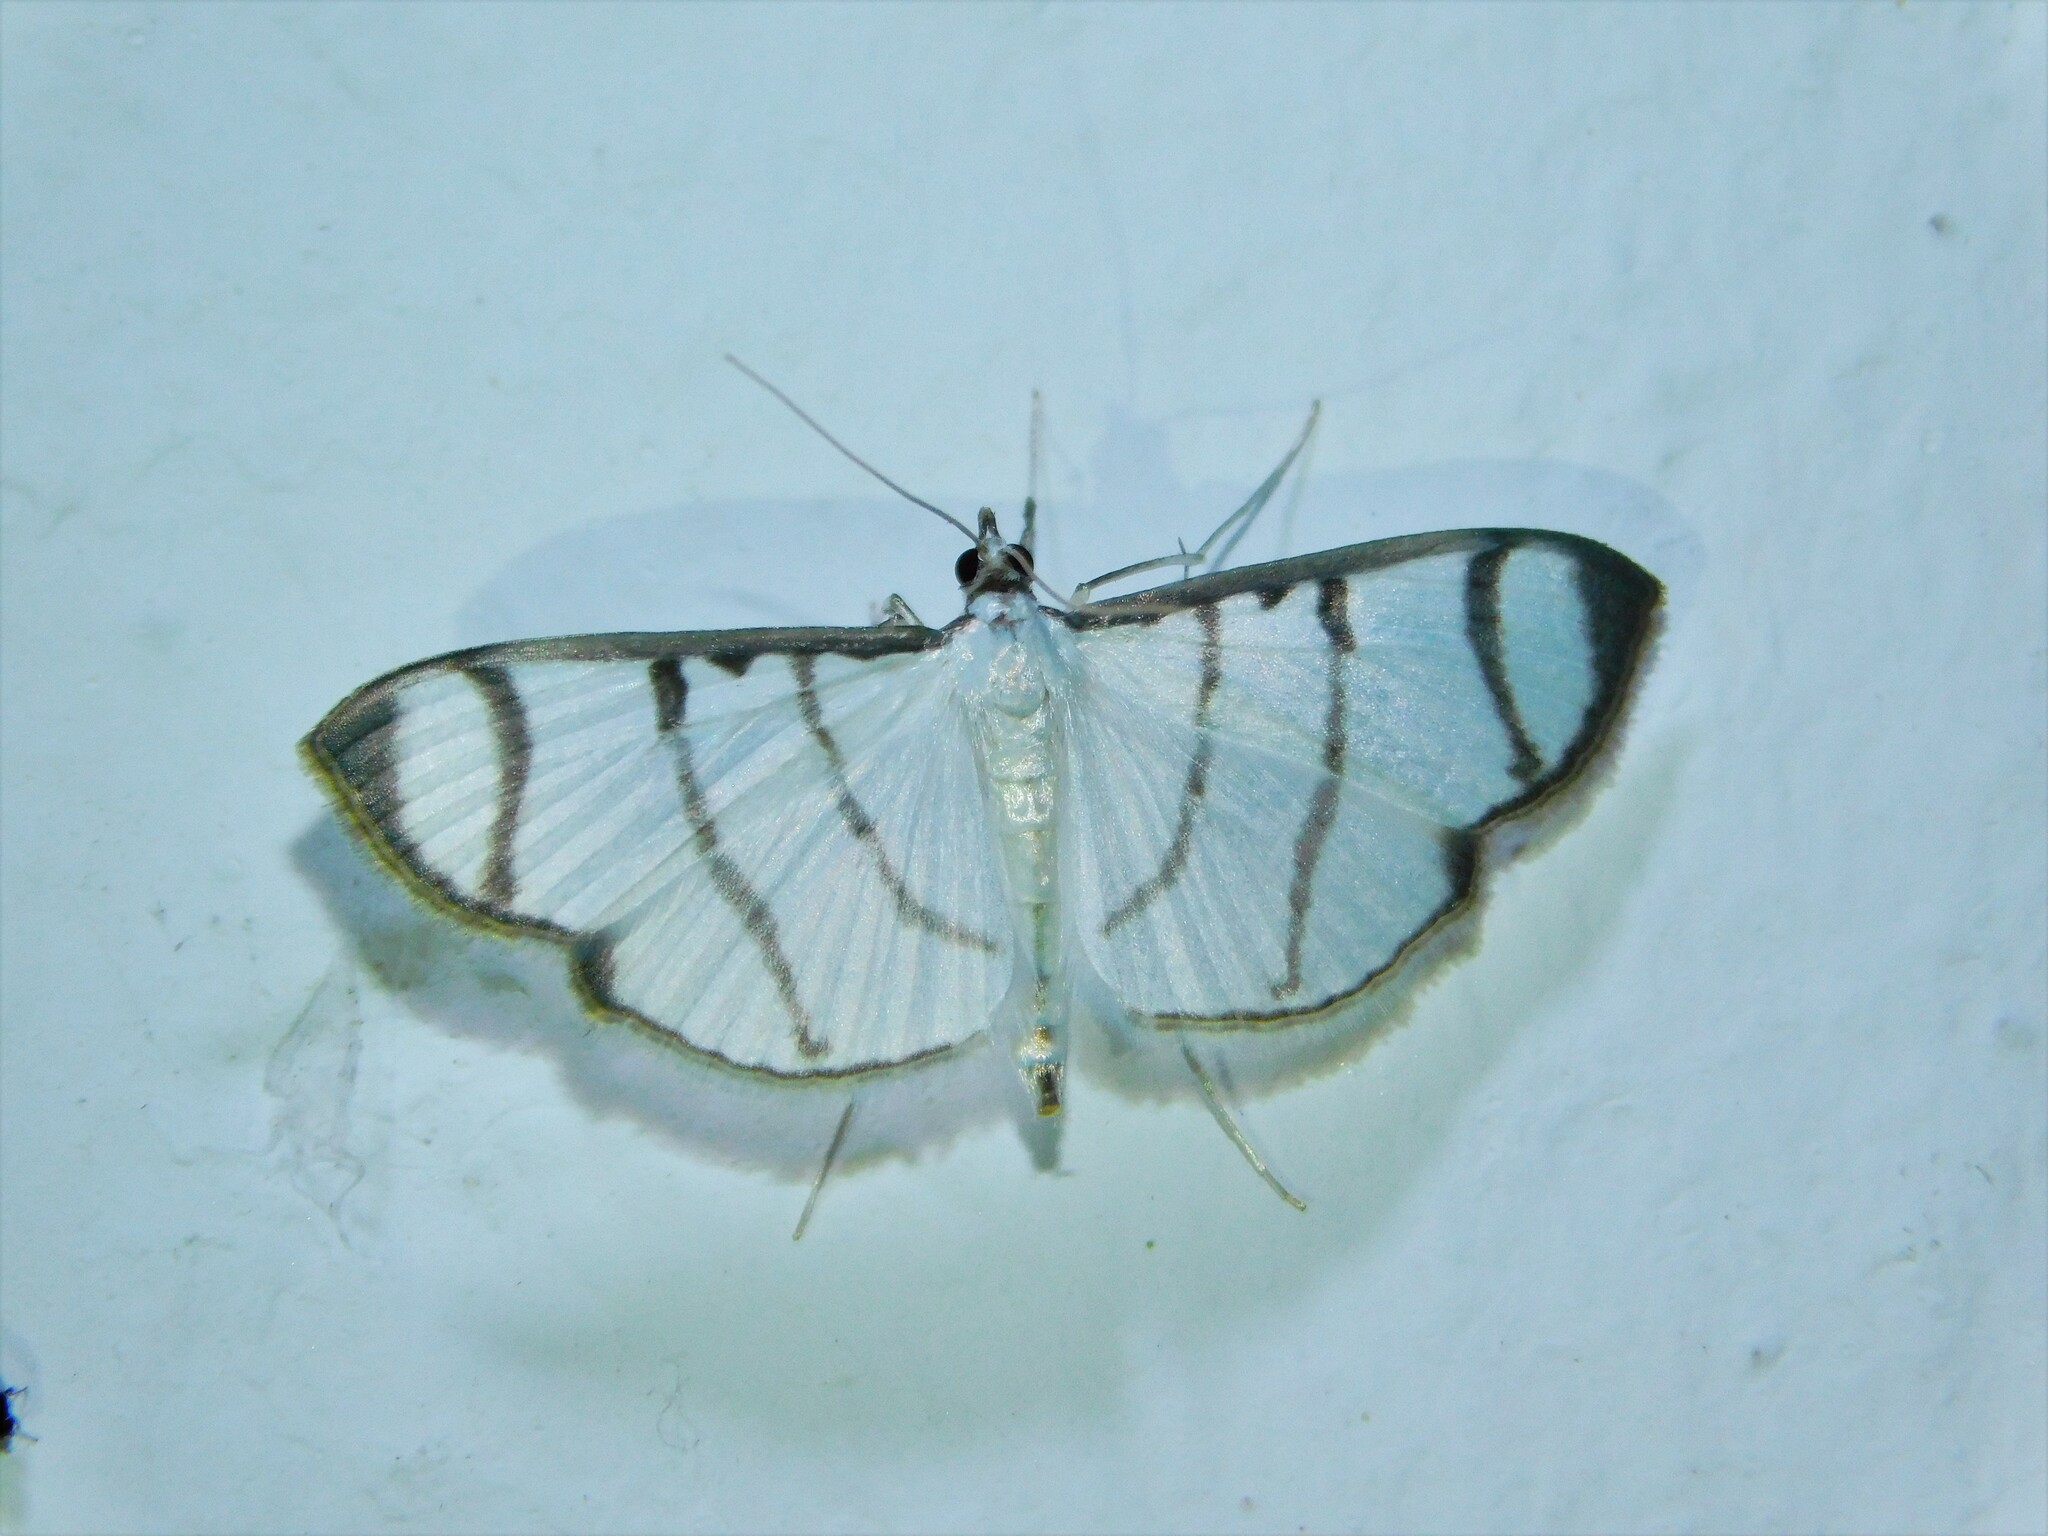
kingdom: Animalia
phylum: Arthropoda
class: Insecta
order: Lepidoptera
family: Crambidae
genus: Zebronia
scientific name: Zebronia phenice
